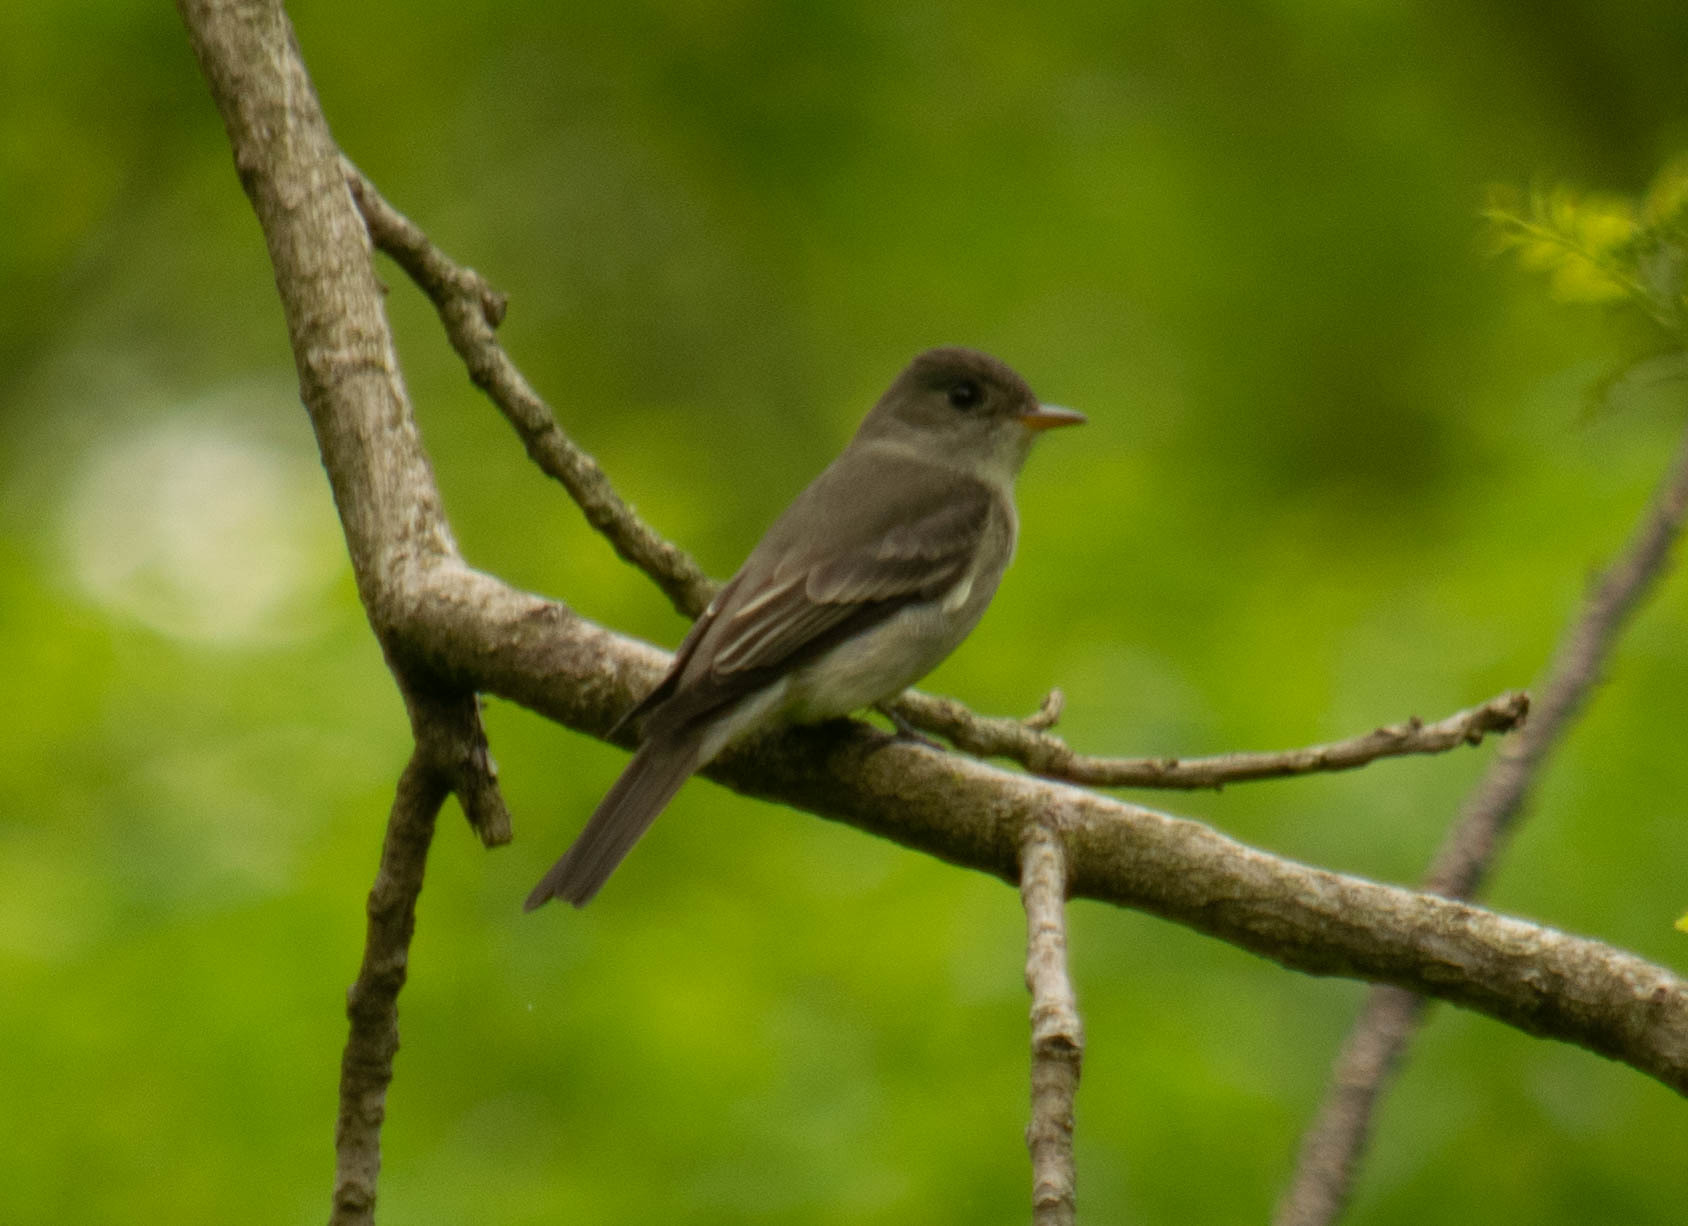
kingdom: Animalia
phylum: Chordata
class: Aves
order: Passeriformes
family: Tyrannidae
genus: Contopus
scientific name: Contopus virens
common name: Eastern wood-pewee
